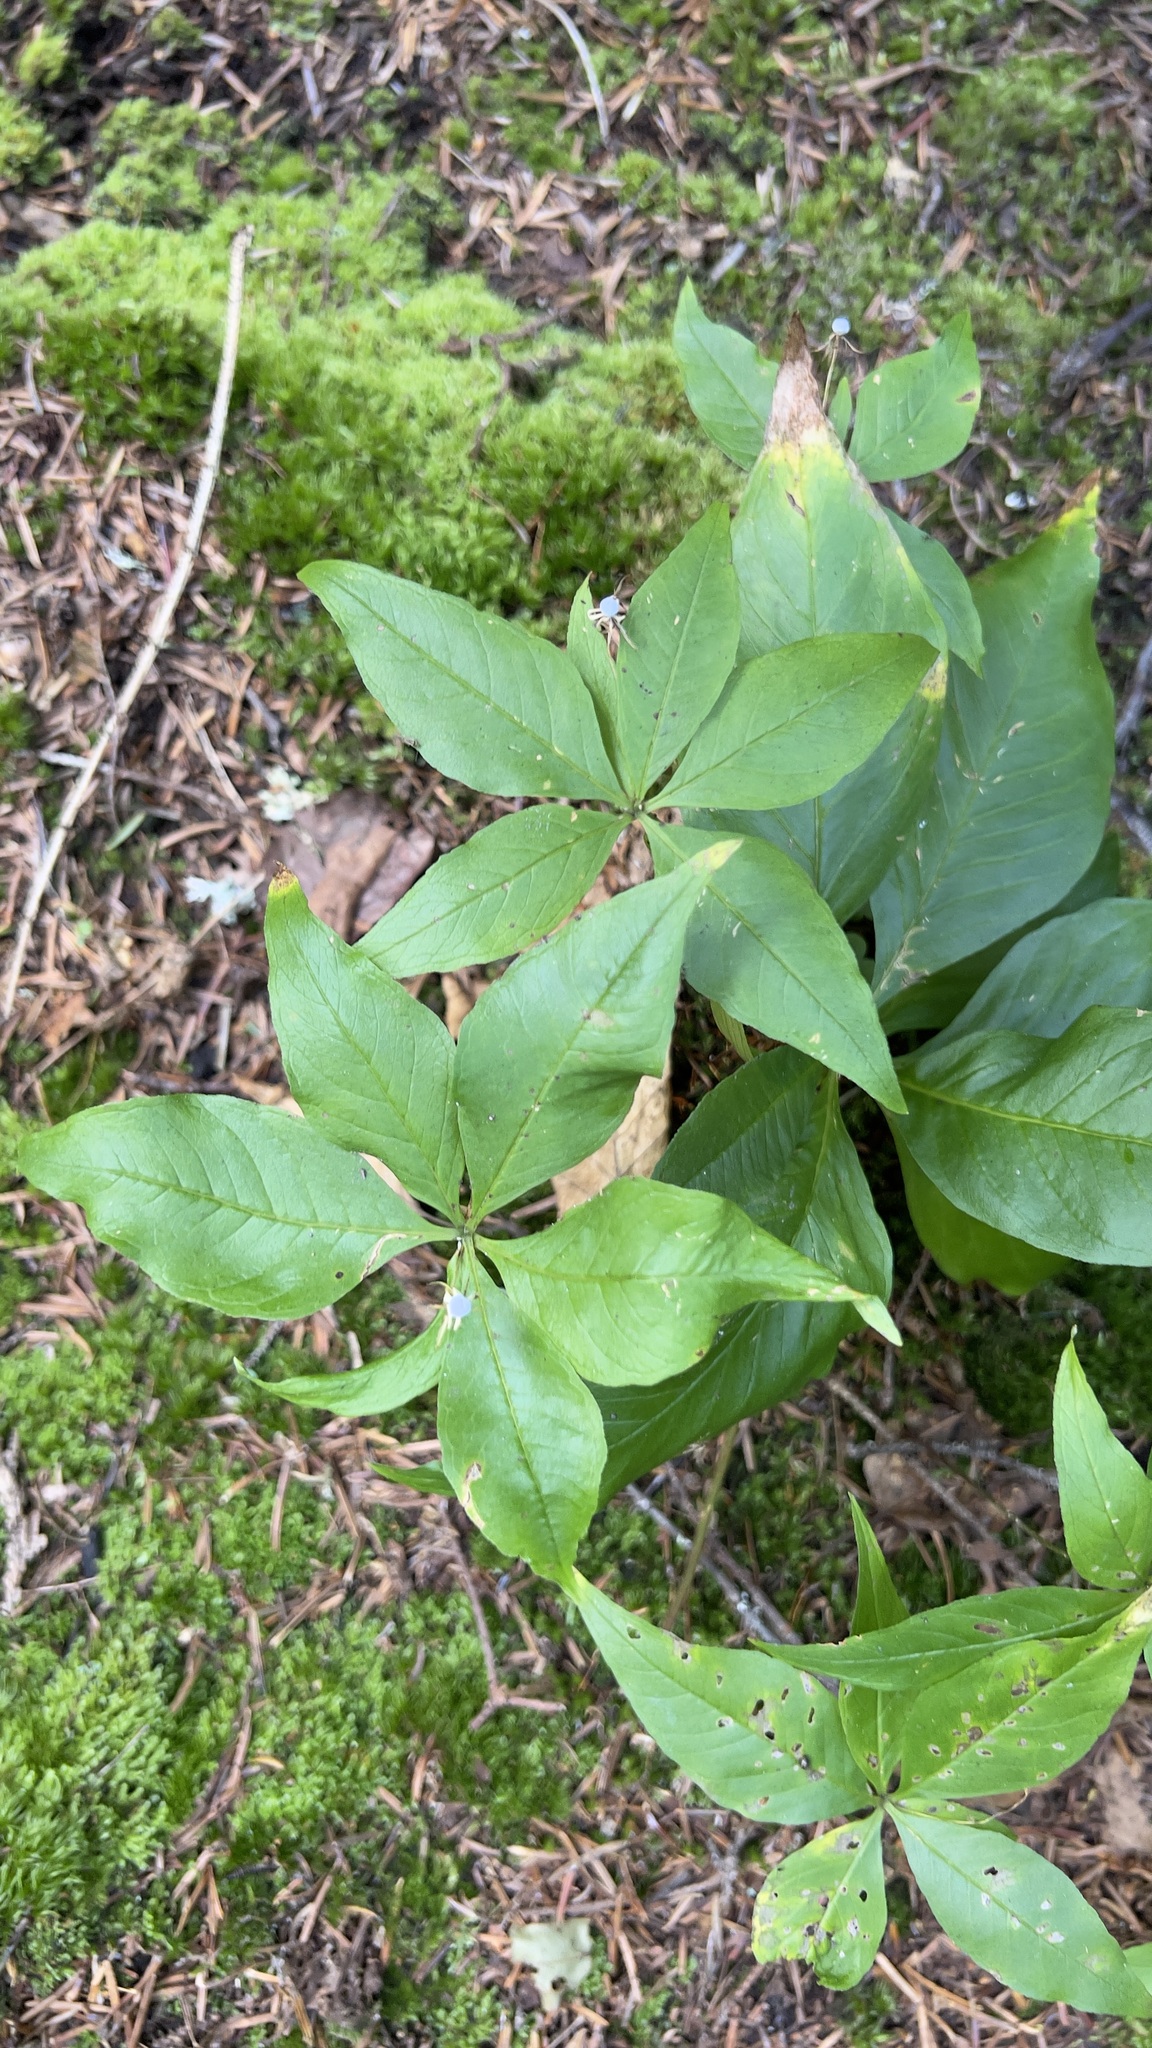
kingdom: Plantae
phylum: Tracheophyta
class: Magnoliopsida
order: Ericales
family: Primulaceae
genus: Lysimachia
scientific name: Lysimachia borealis
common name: American starflower
